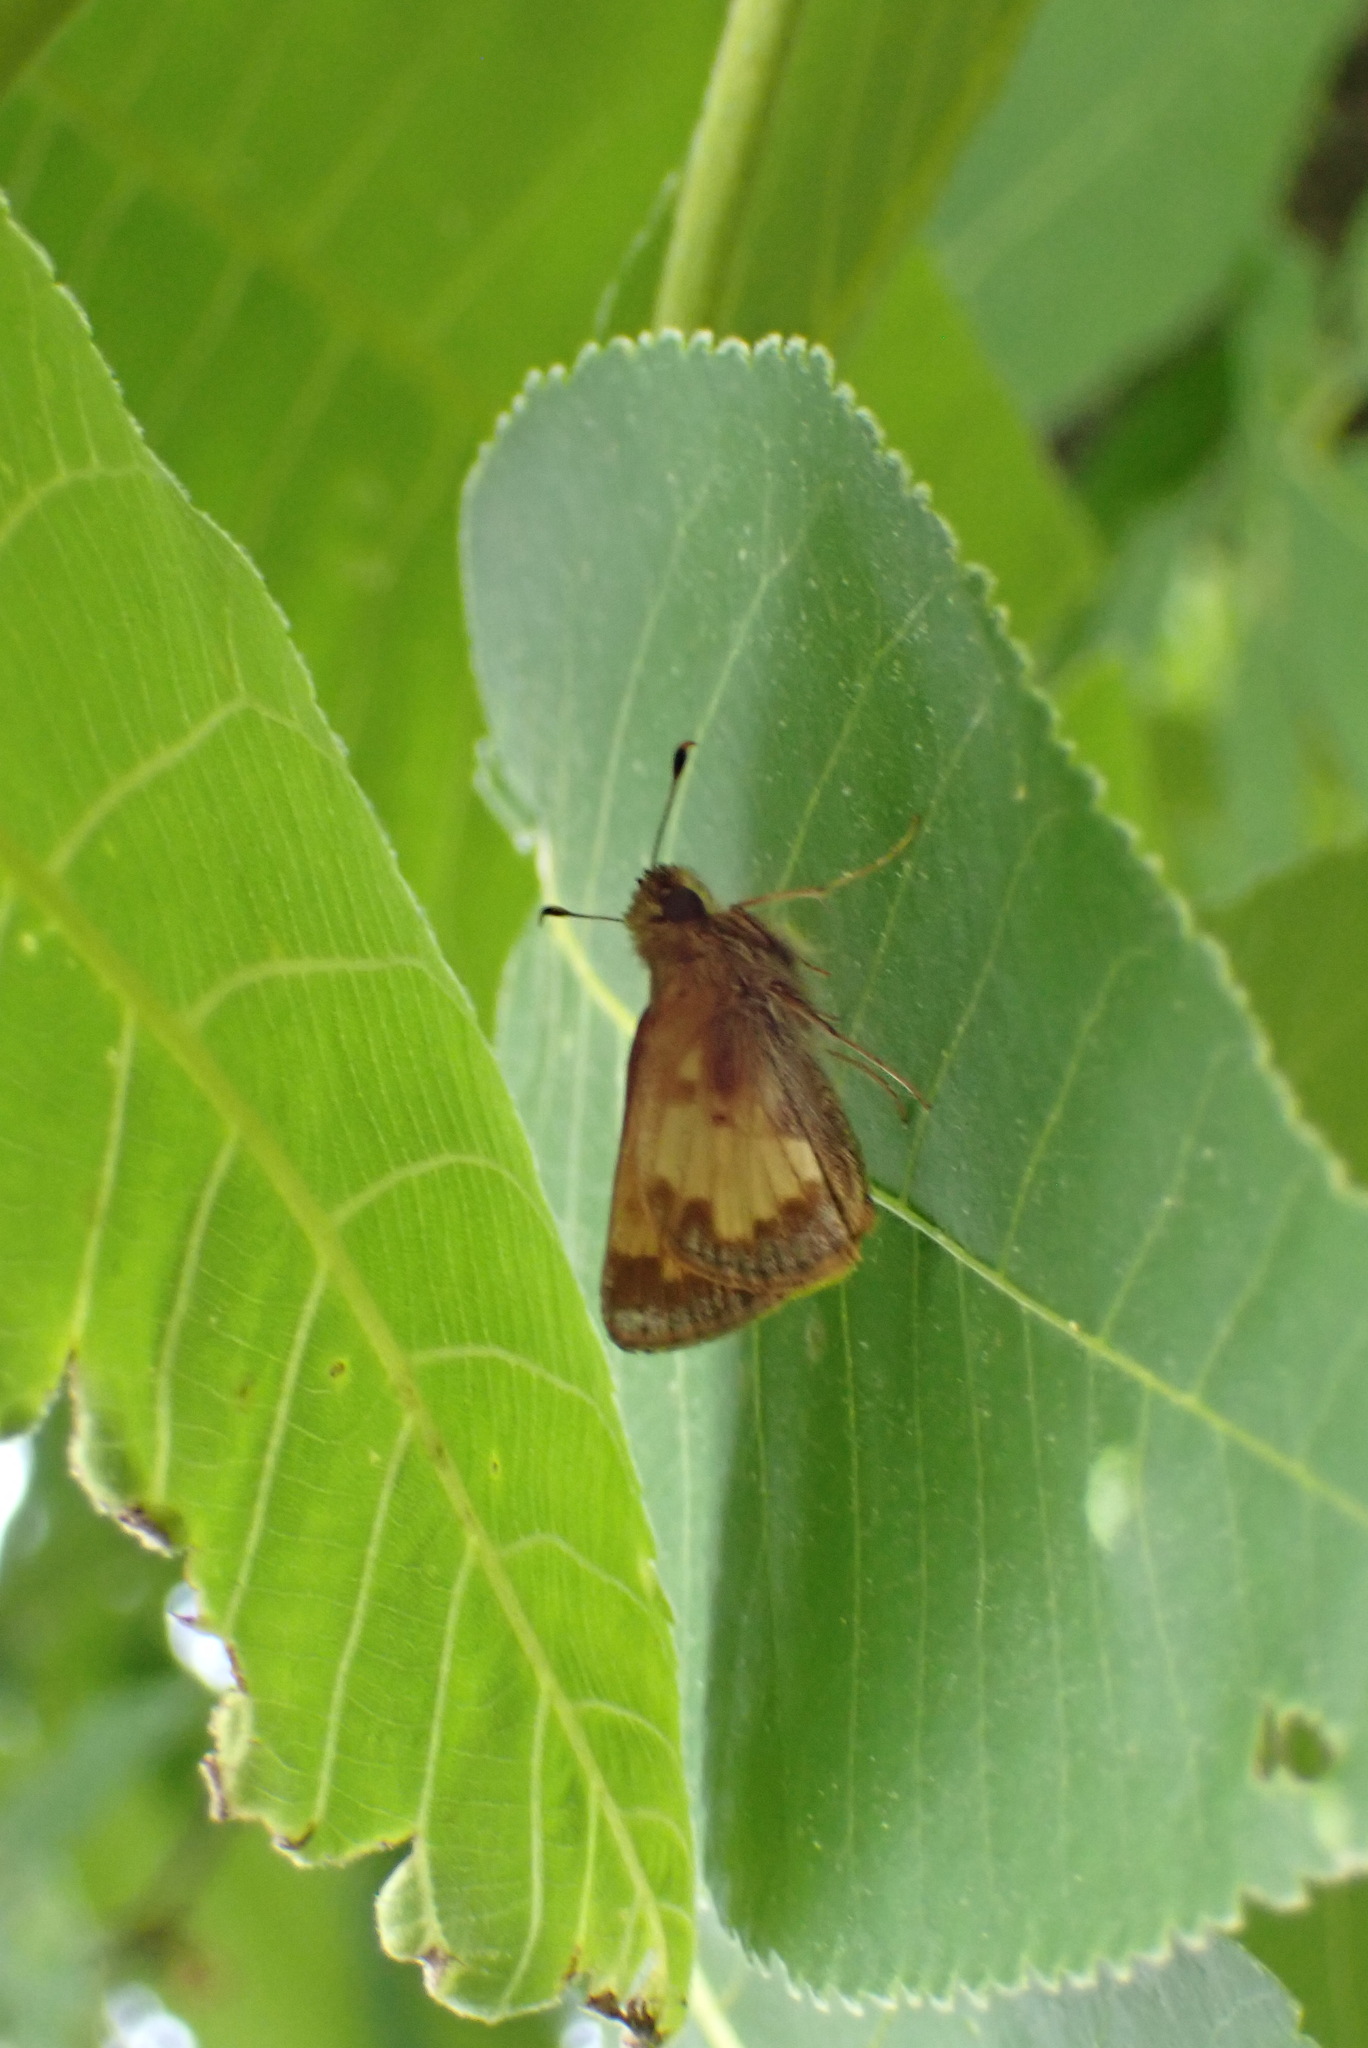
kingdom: Animalia
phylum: Arthropoda
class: Insecta
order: Lepidoptera
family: Hesperiidae
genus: Lon
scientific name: Lon hobomok
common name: Hobomok skipper
